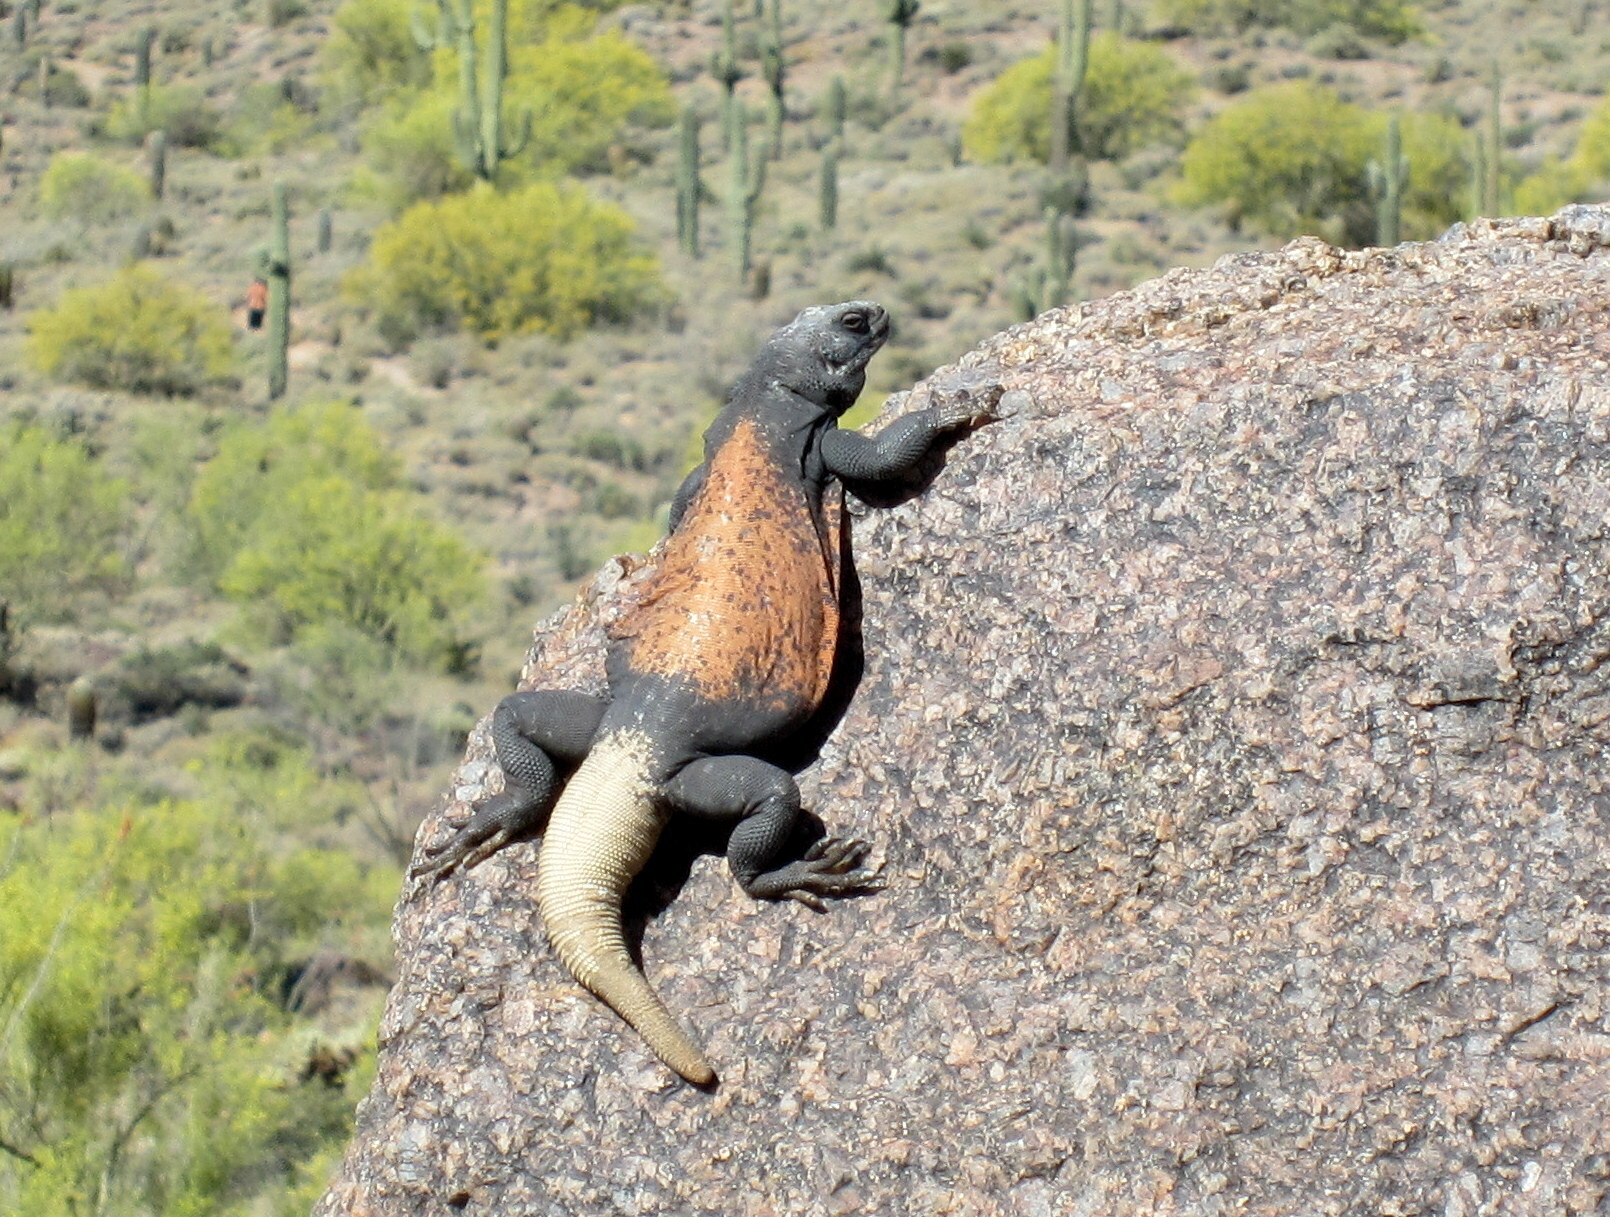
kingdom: Animalia
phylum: Chordata
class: Squamata
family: Iguanidae
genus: Sauromalus
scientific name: Sauromalus ater
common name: Northern chuckwalla
